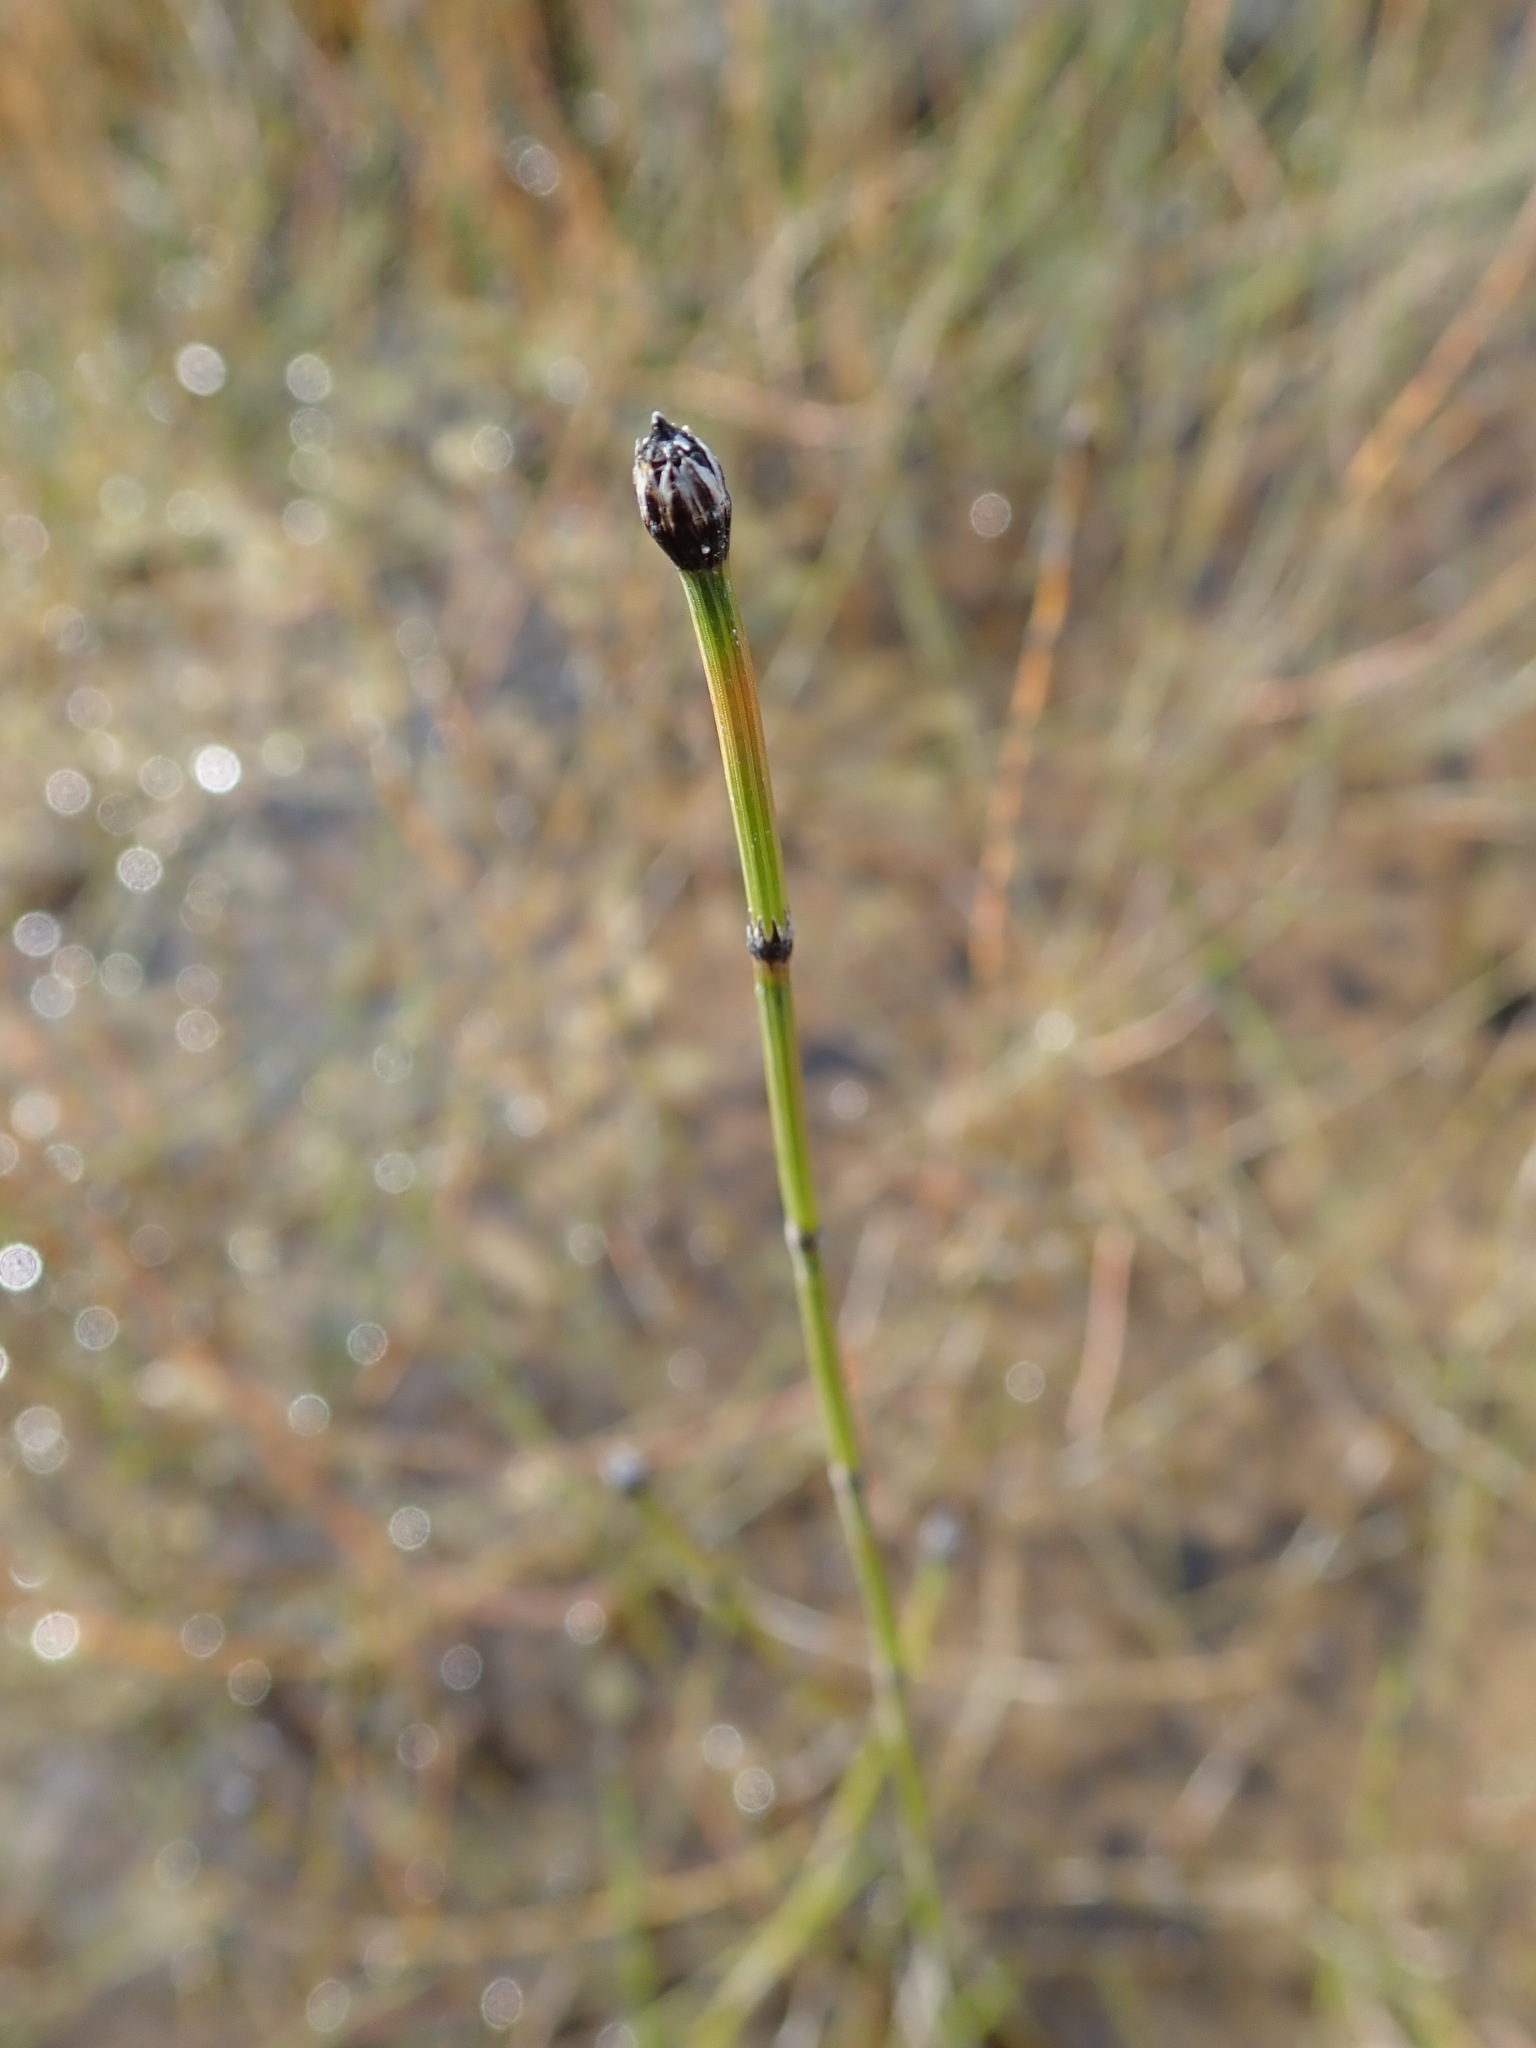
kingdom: Plantae
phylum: Tracheophyta
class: Polypodiopsida
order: Equisetales
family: Equisetaceae
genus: Equisetum
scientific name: Equisetum variegatum
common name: Variegated horsetail
